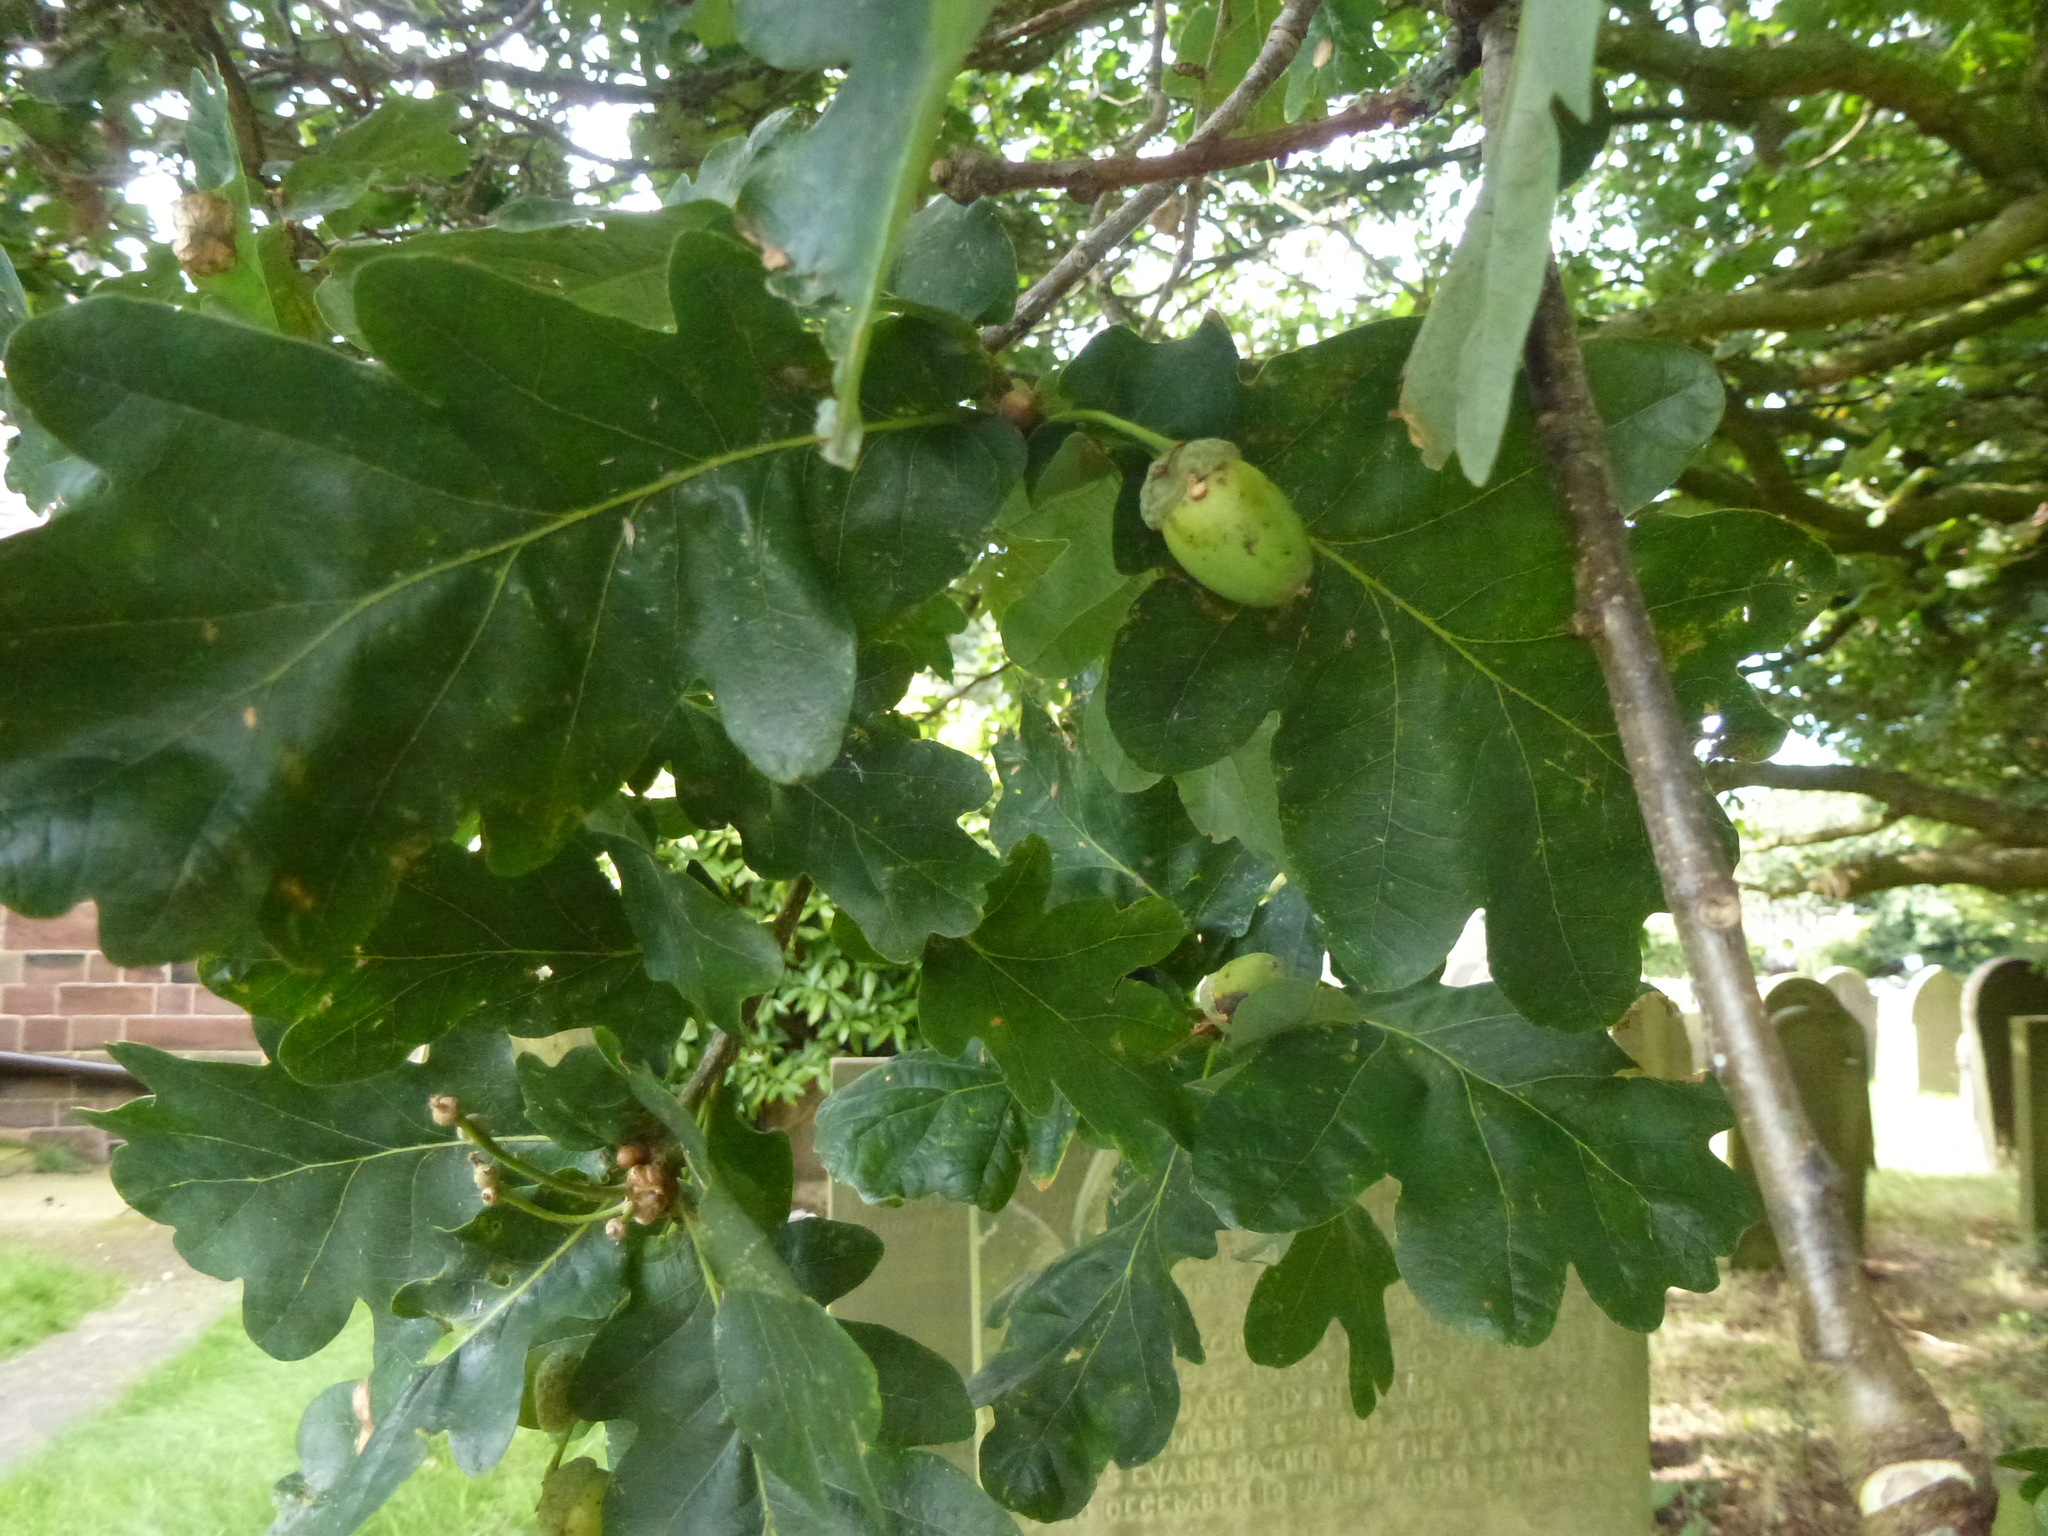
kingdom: Plantae
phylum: Tracheophyta
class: Magnoliopsida
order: Fagales
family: Fagaceae
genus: Quercus
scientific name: Quercus robur
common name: Pedunculate oak
